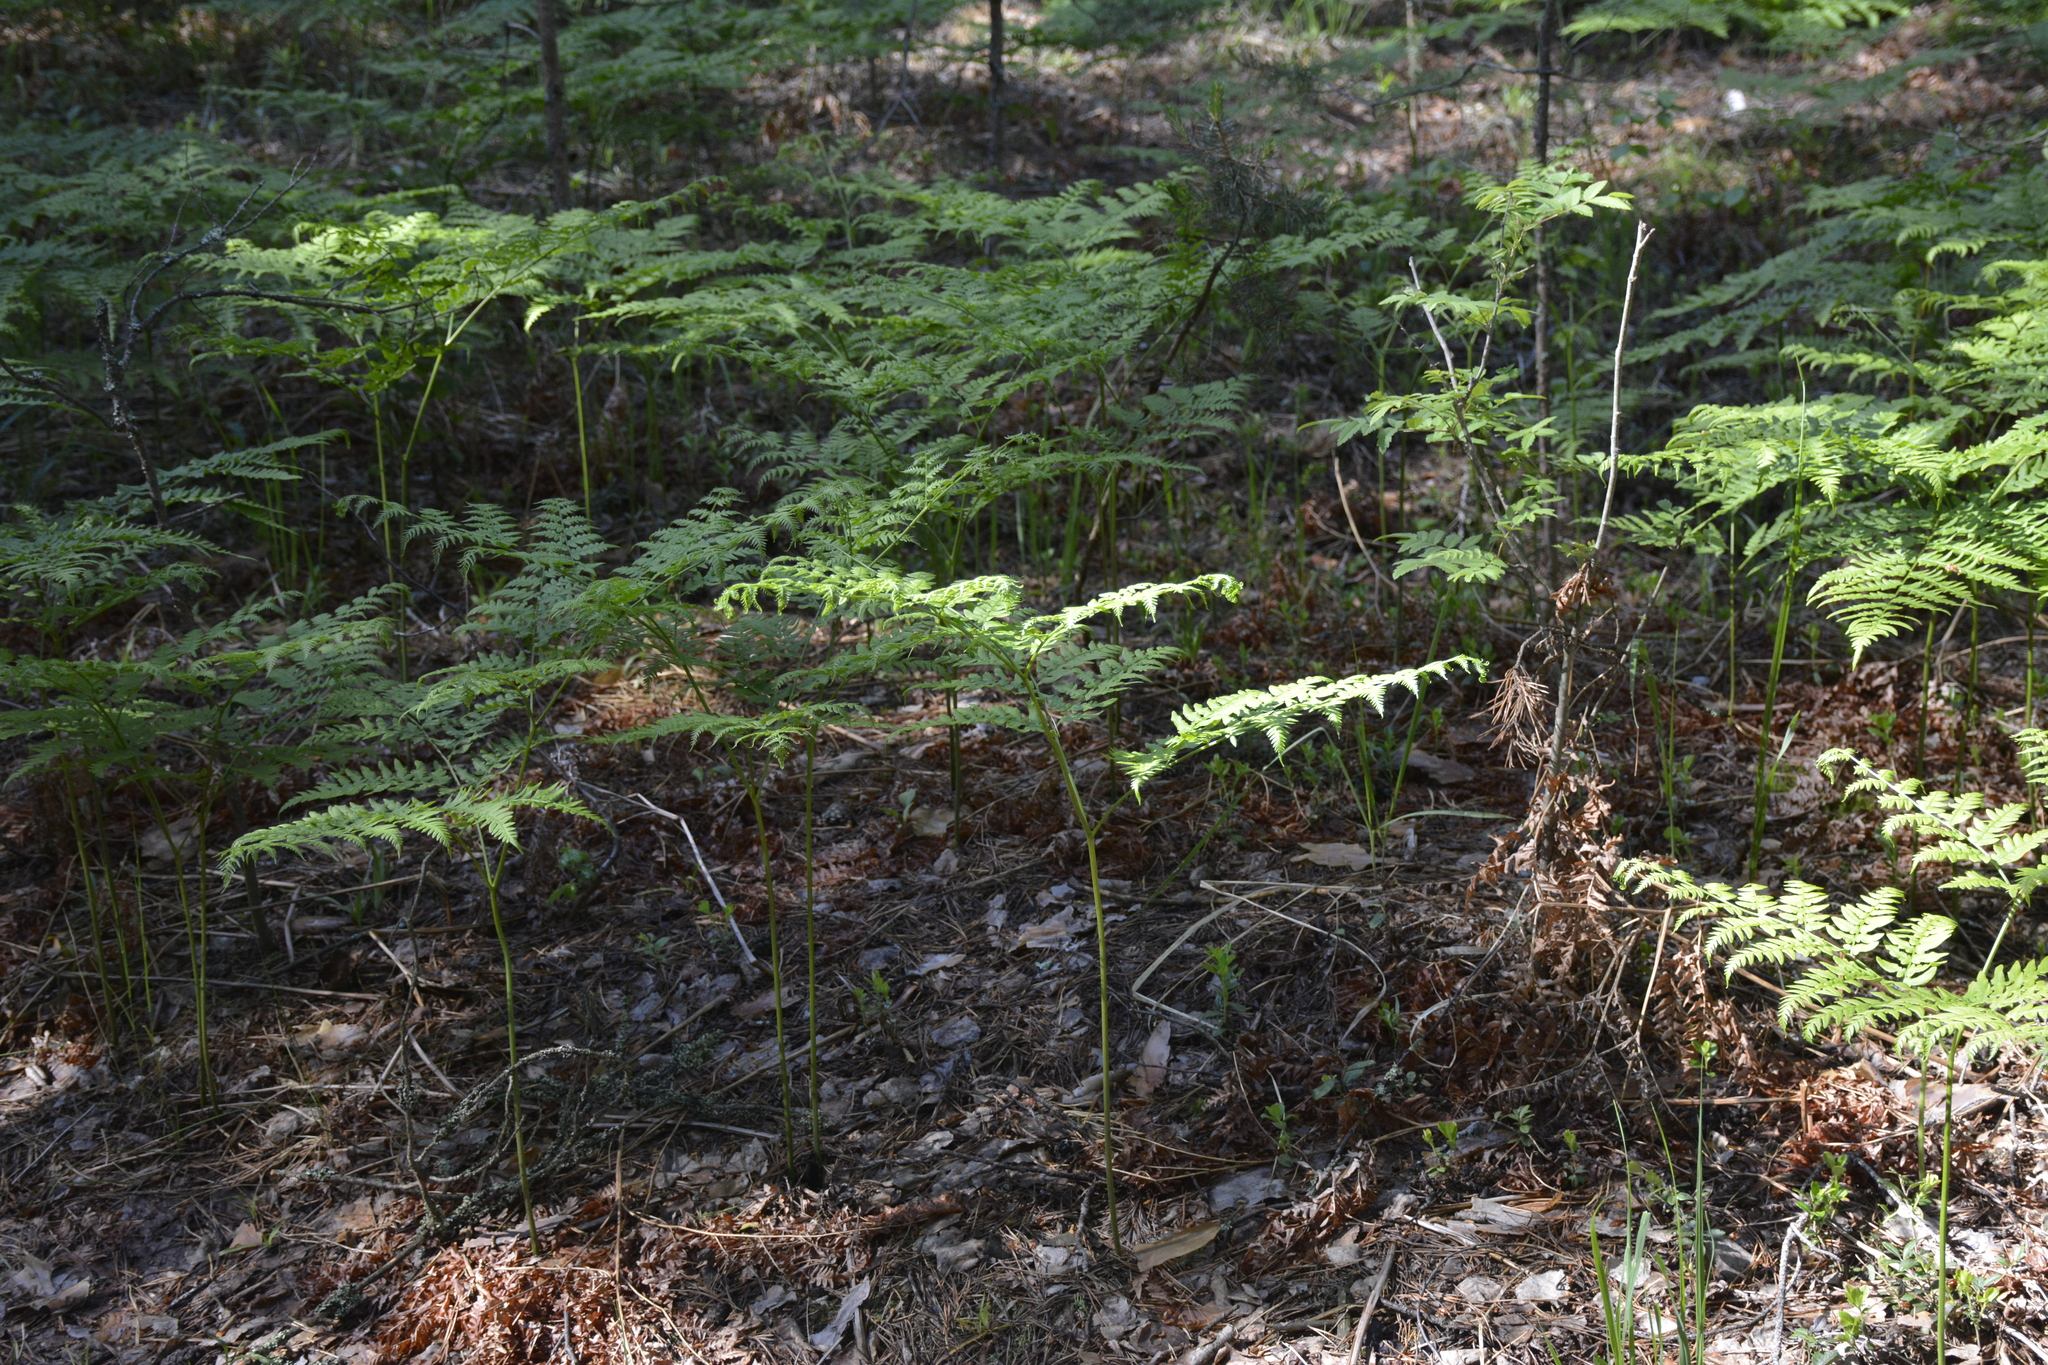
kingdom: Plantae
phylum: Tracheophyta
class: Polypodiopsida
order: Polypodiales
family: Dennstaedtiaceae
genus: Pteridium
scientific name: Pteridium aquilinum
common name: Bracken
